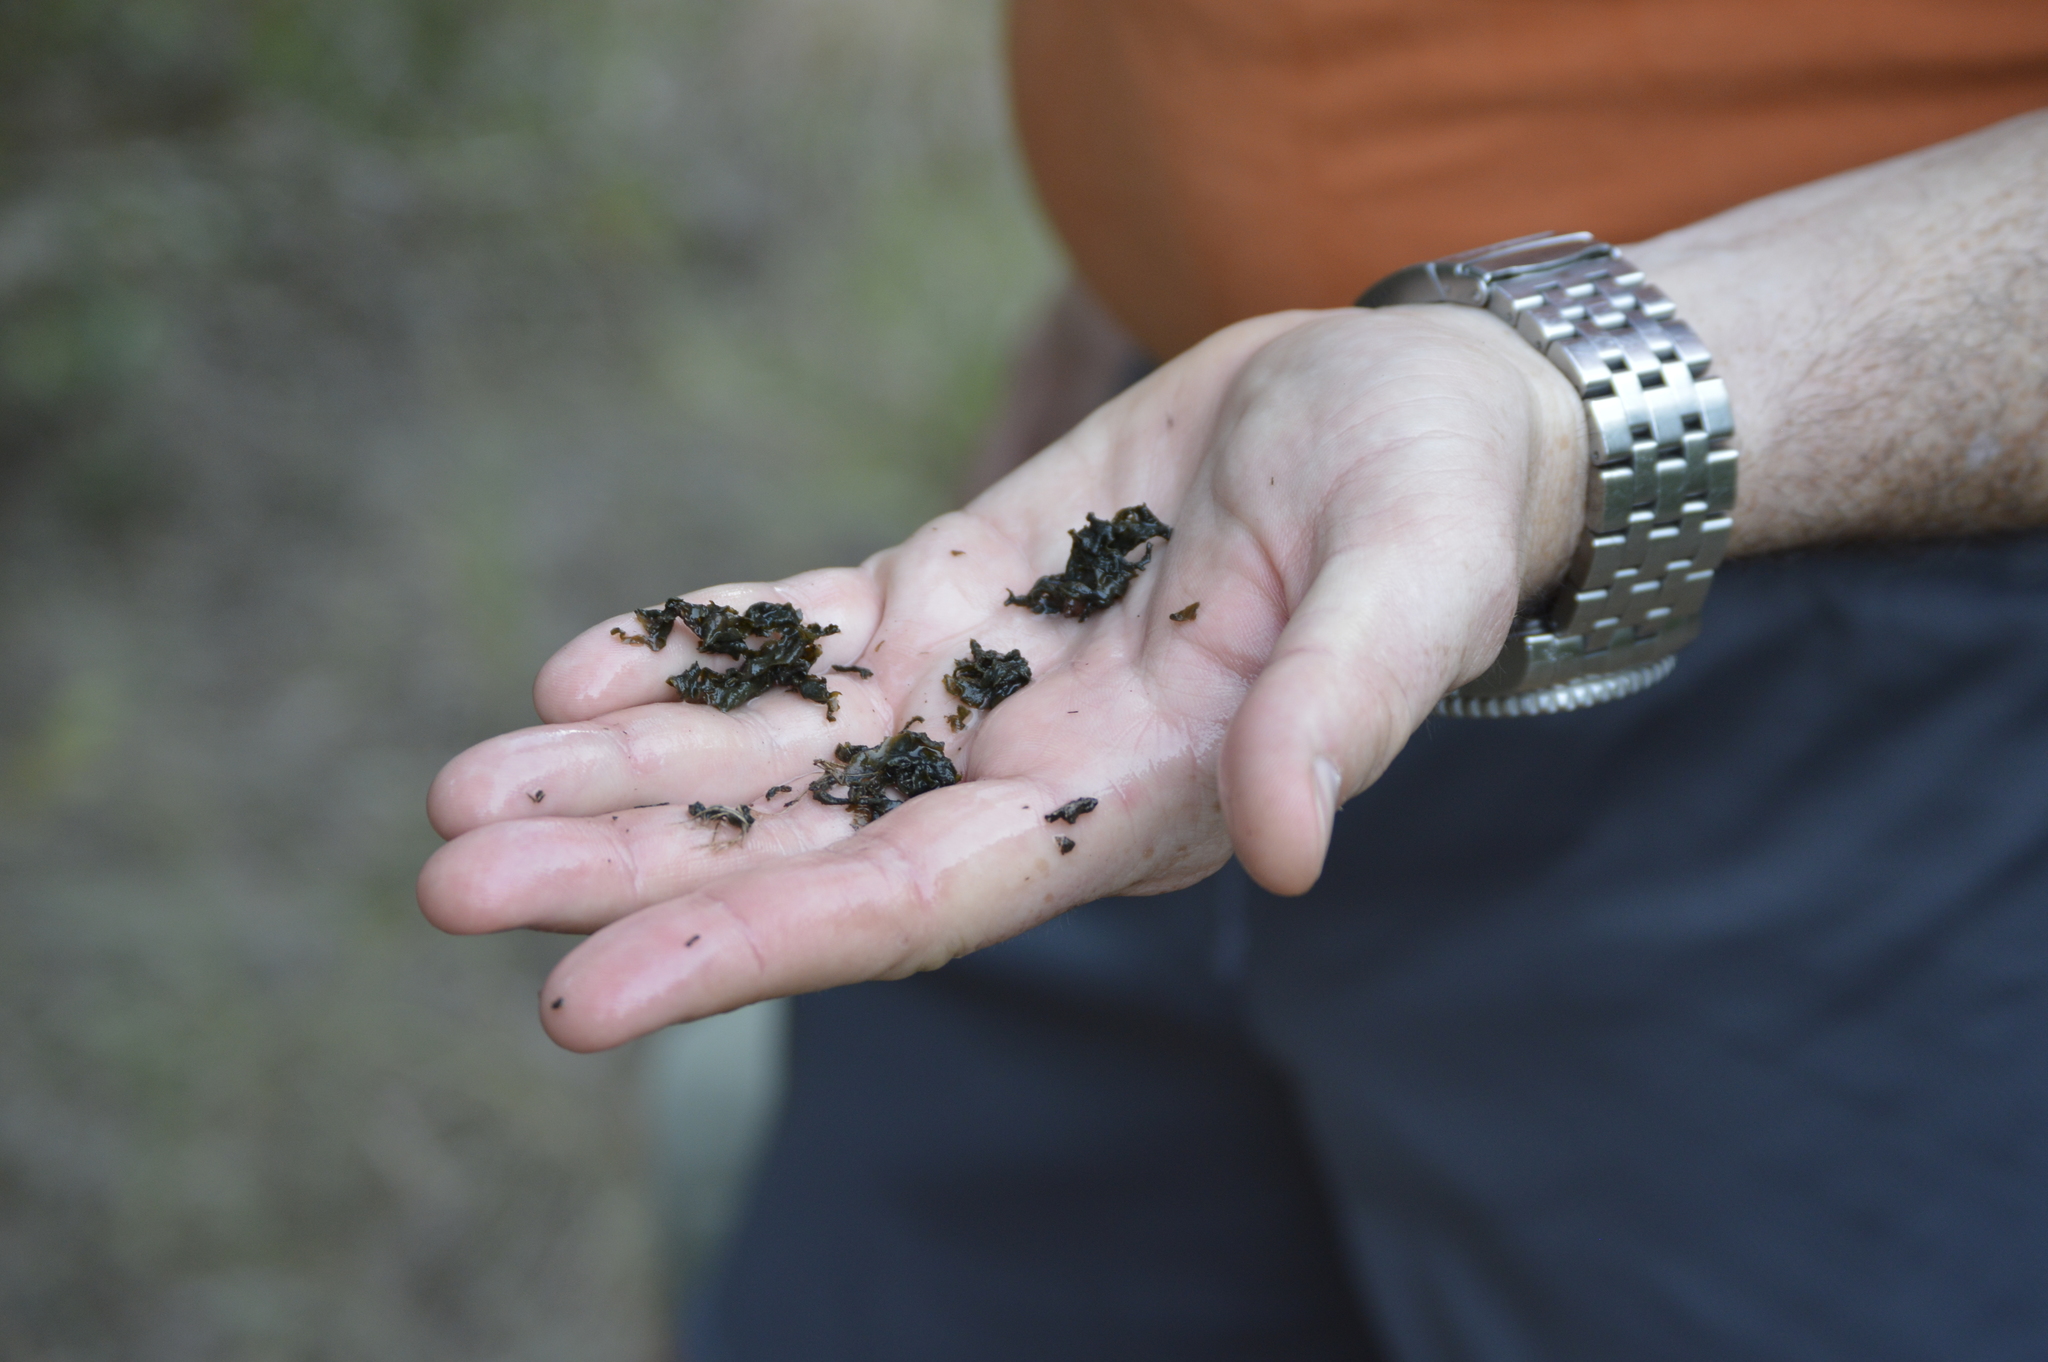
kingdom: Bacteria
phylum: Cyanobacteria
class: Cyanobacteriia
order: Cyanobacteriales
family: Nostocaceae
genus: Nostoc
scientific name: Nostoc commune
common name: Star jelly
